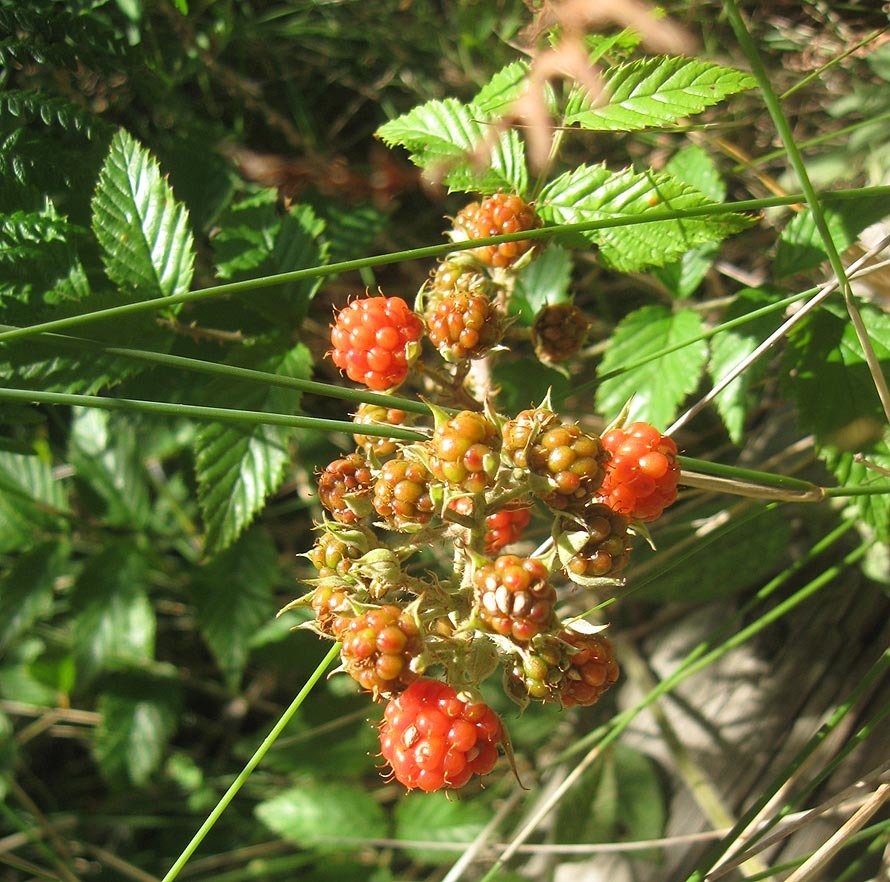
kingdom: Plantae
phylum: Tracheophyta
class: Magnoliopsida
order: Rosales
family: Rosaceae
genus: Rubus
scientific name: Rubus pinnatus
